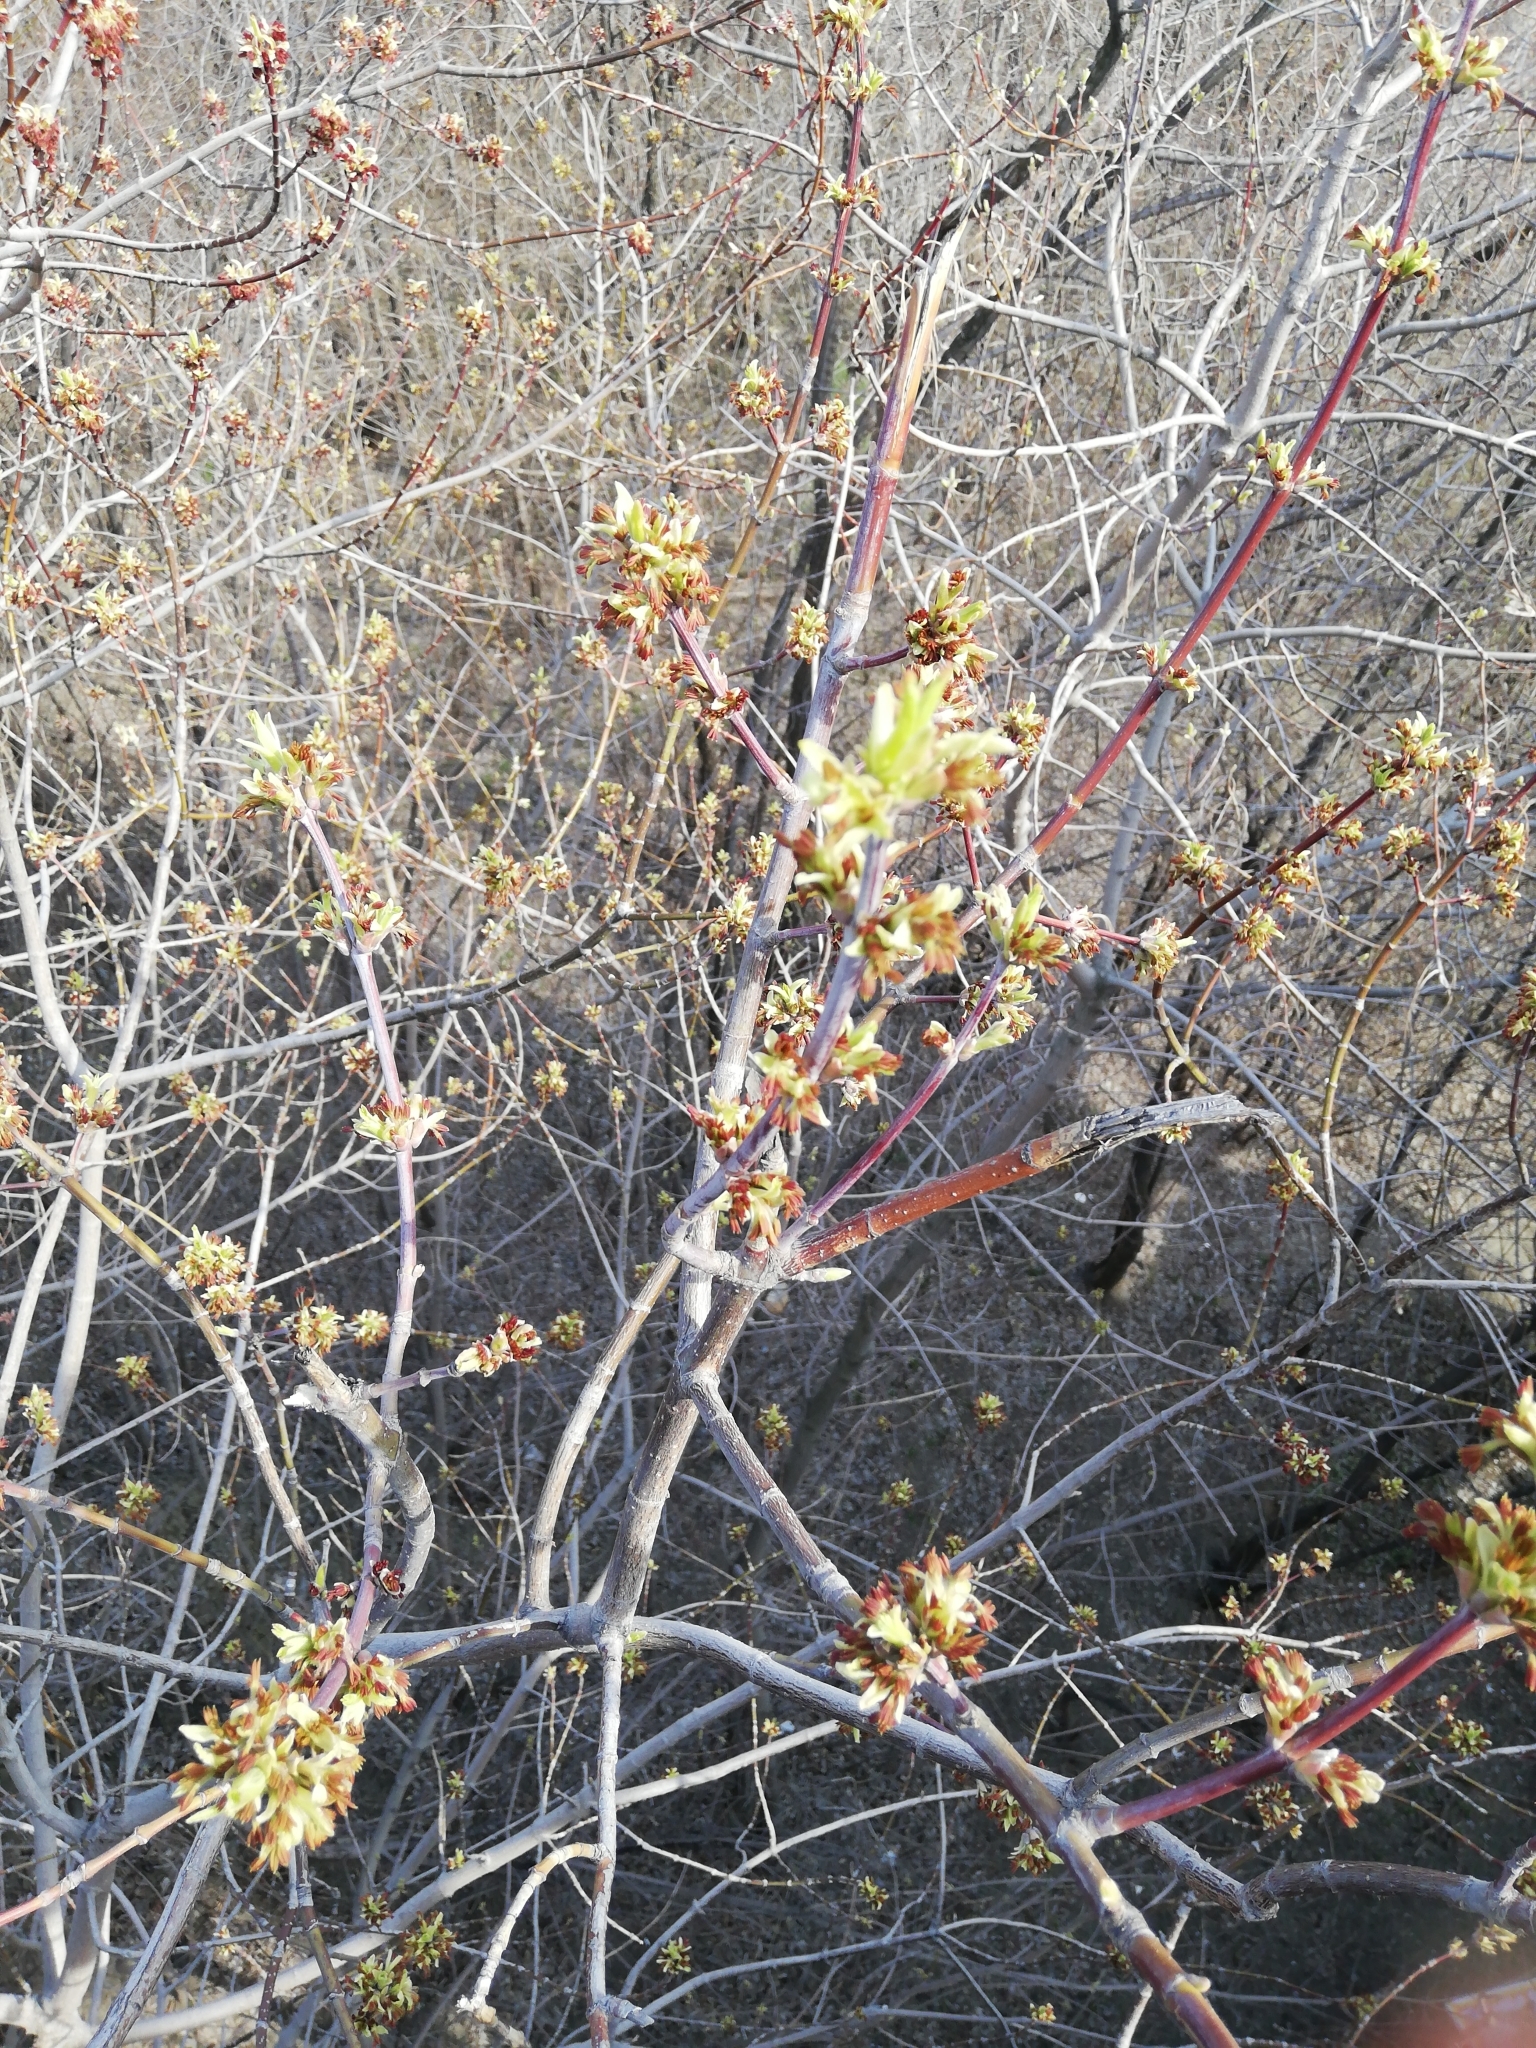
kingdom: Plantae
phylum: Tracheophyta
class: Magnoliopsida
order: Sapindales
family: Sapindaceae
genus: Acer
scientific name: Acer negundo
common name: Ashleaf maple
